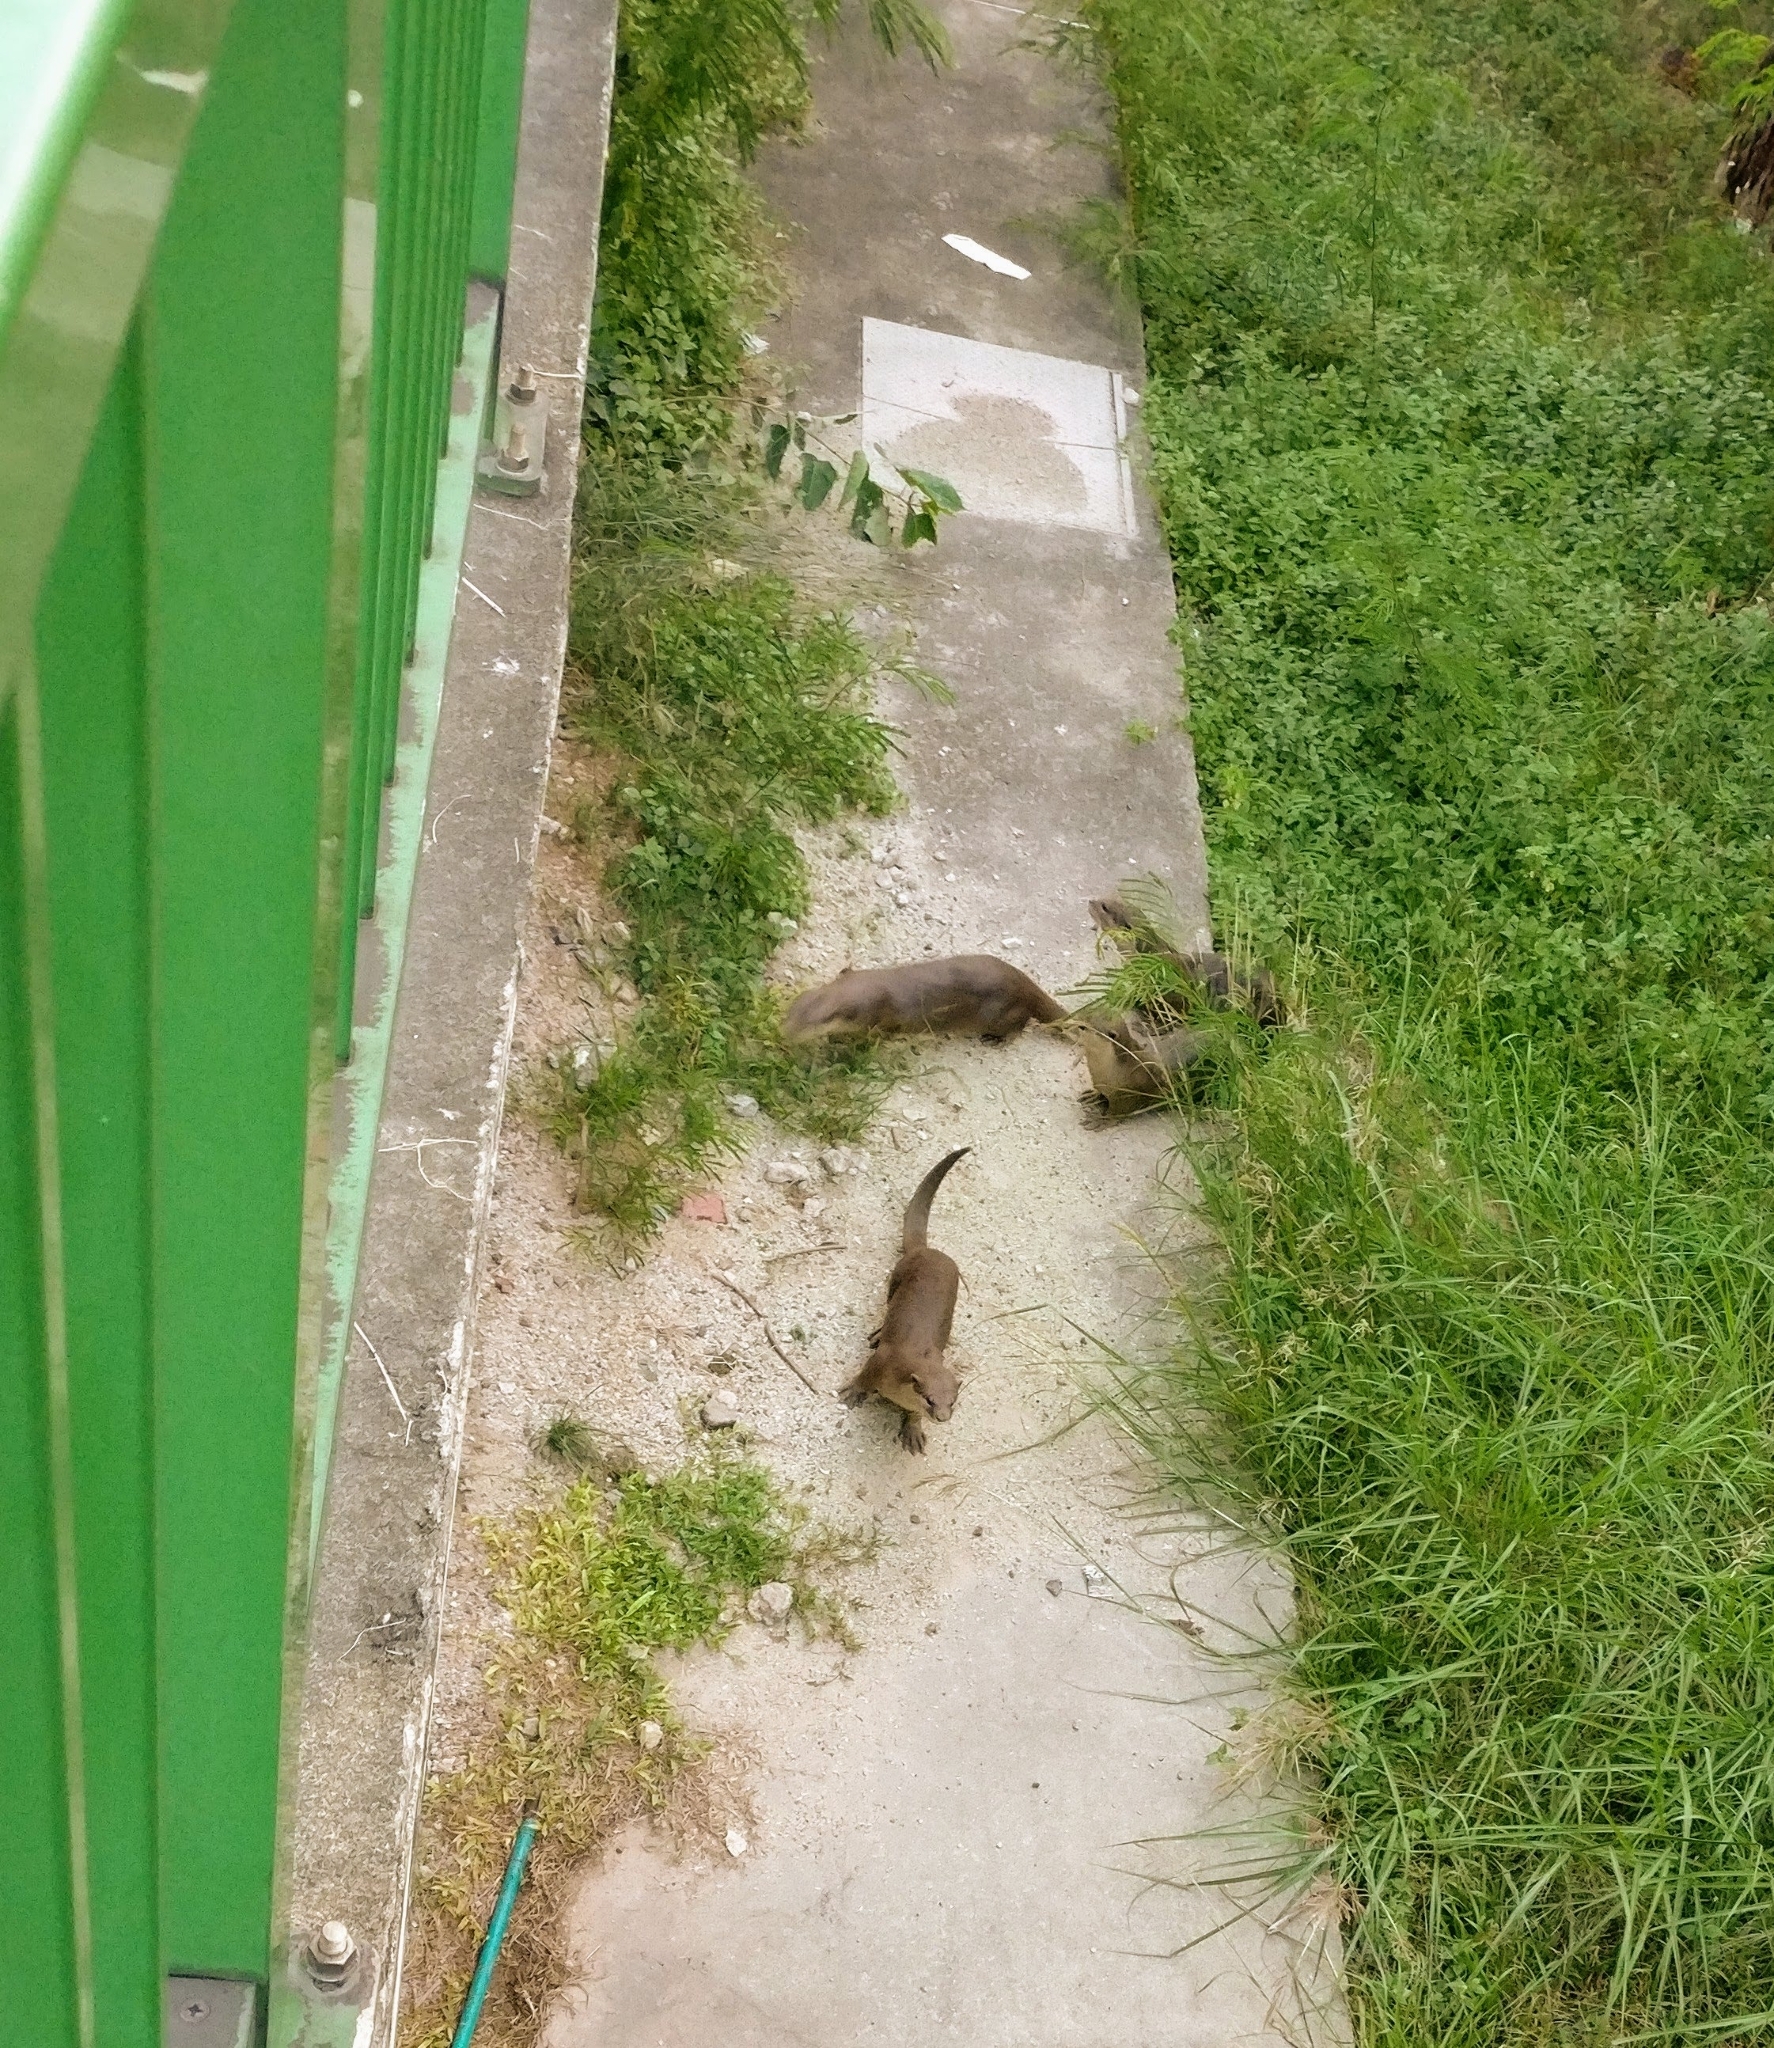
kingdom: Animalia
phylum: Chordata
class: Mammalia
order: Carnivora
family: Mustelidae
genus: Lutrogale
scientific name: Lutrogale perspicillata
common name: Smooth-coated otter
